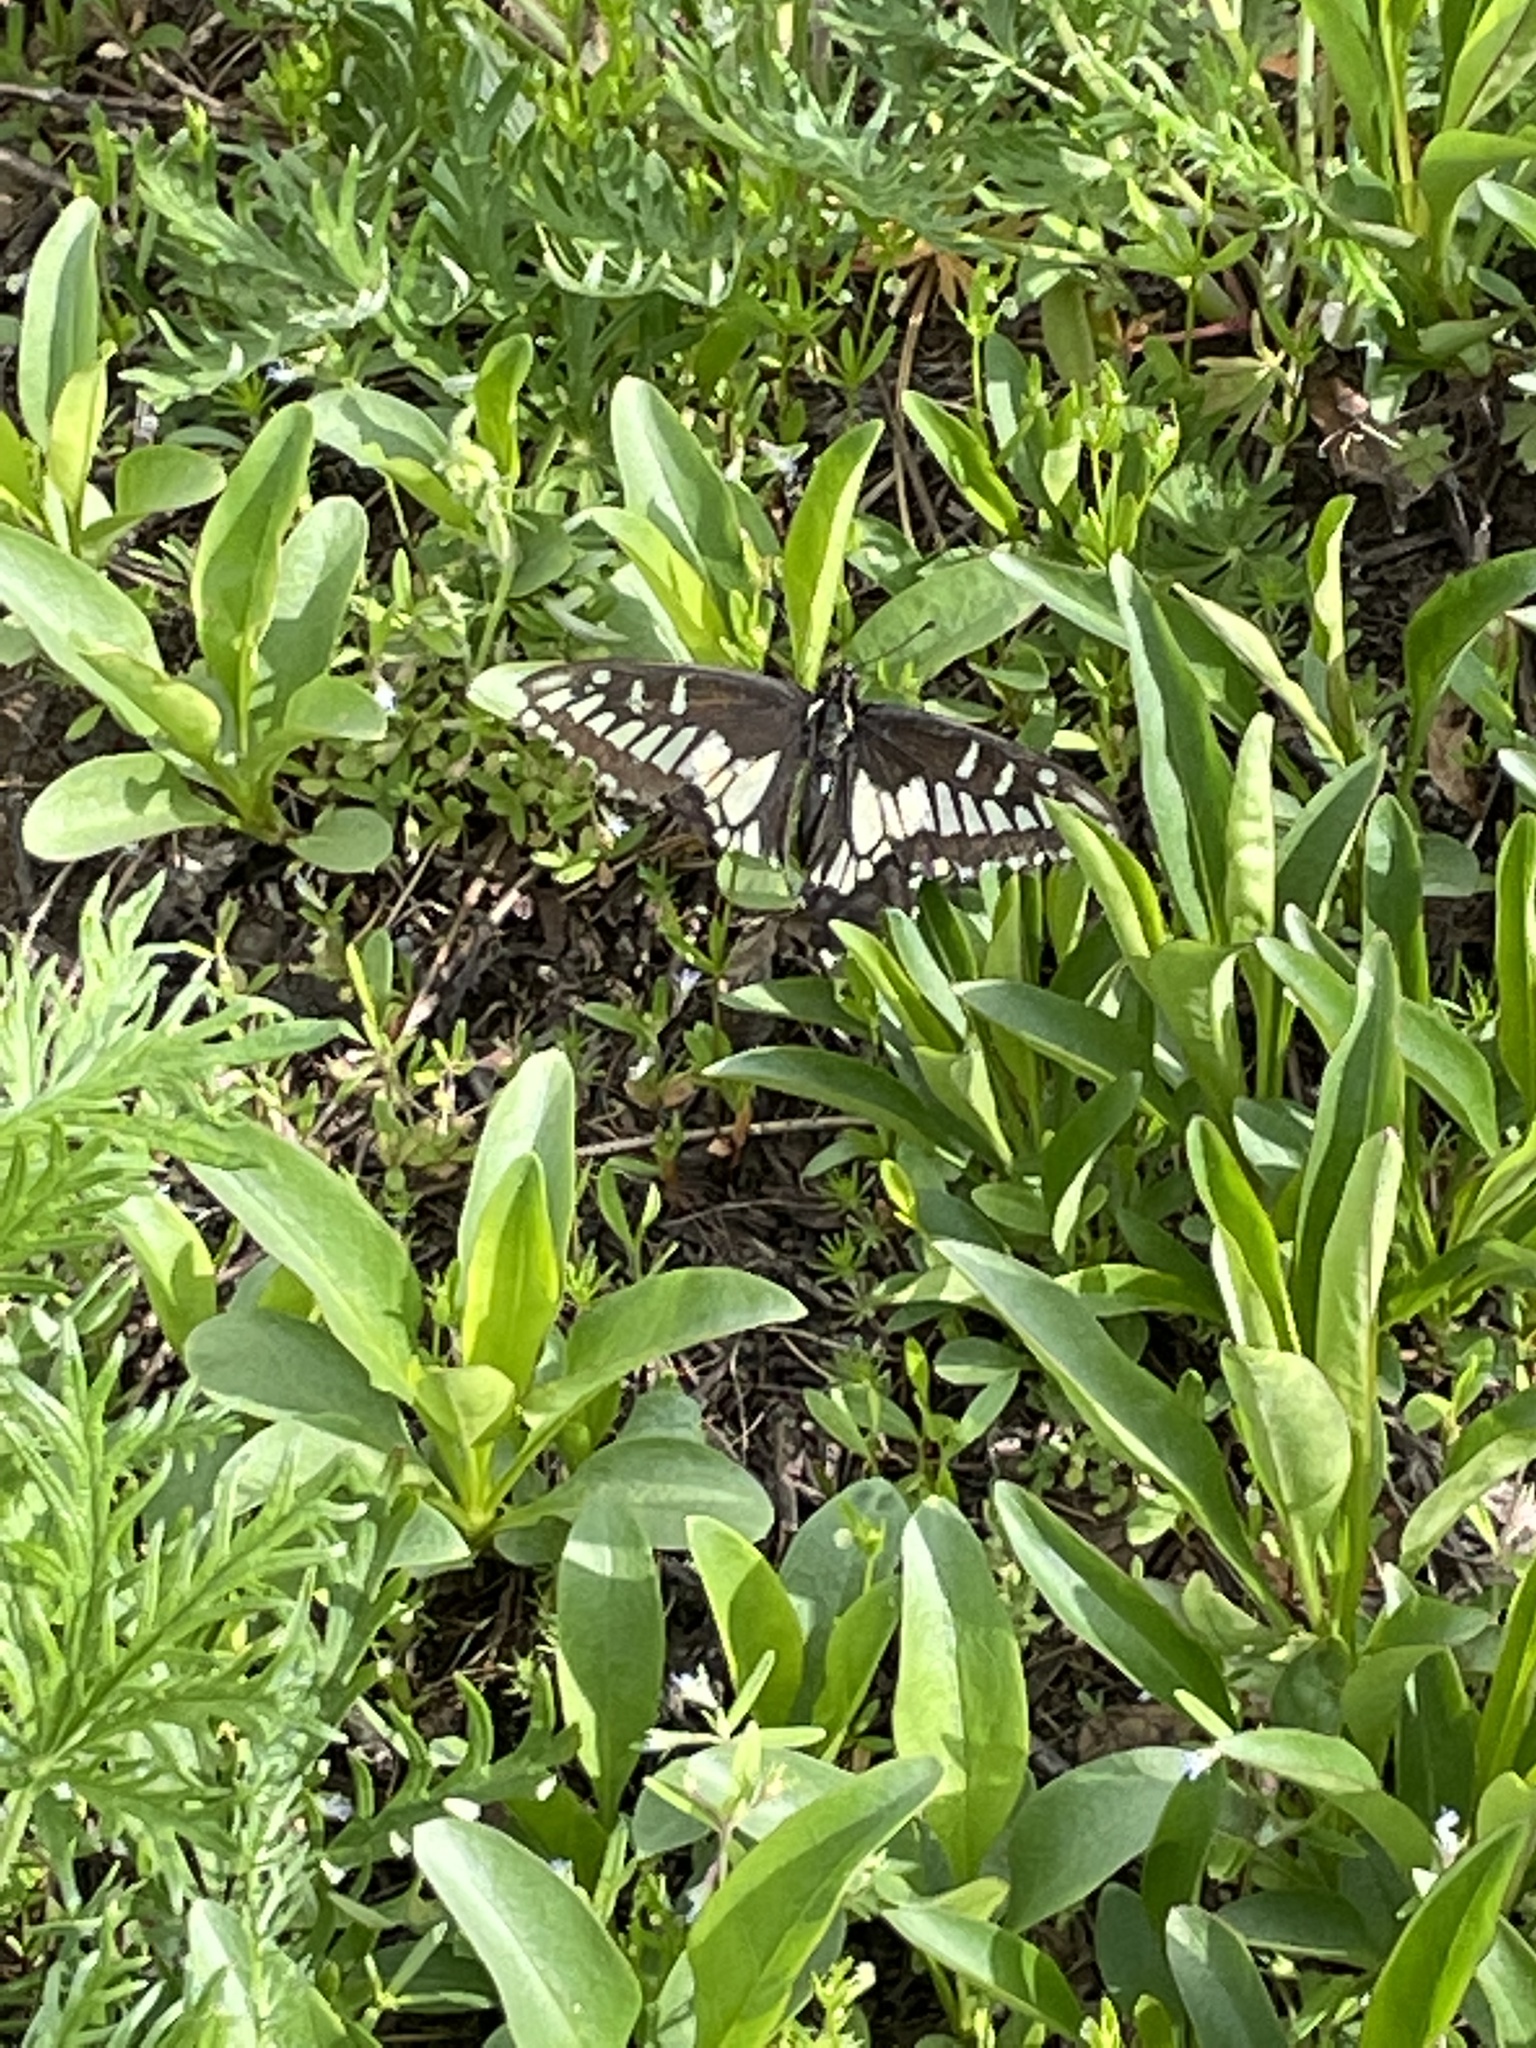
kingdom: Animalia
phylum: Arthropoda
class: Insecta
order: Lepidoptera
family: Papilionidae
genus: Papilio
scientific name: Papilio zelicaon
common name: Anise swallowtail
